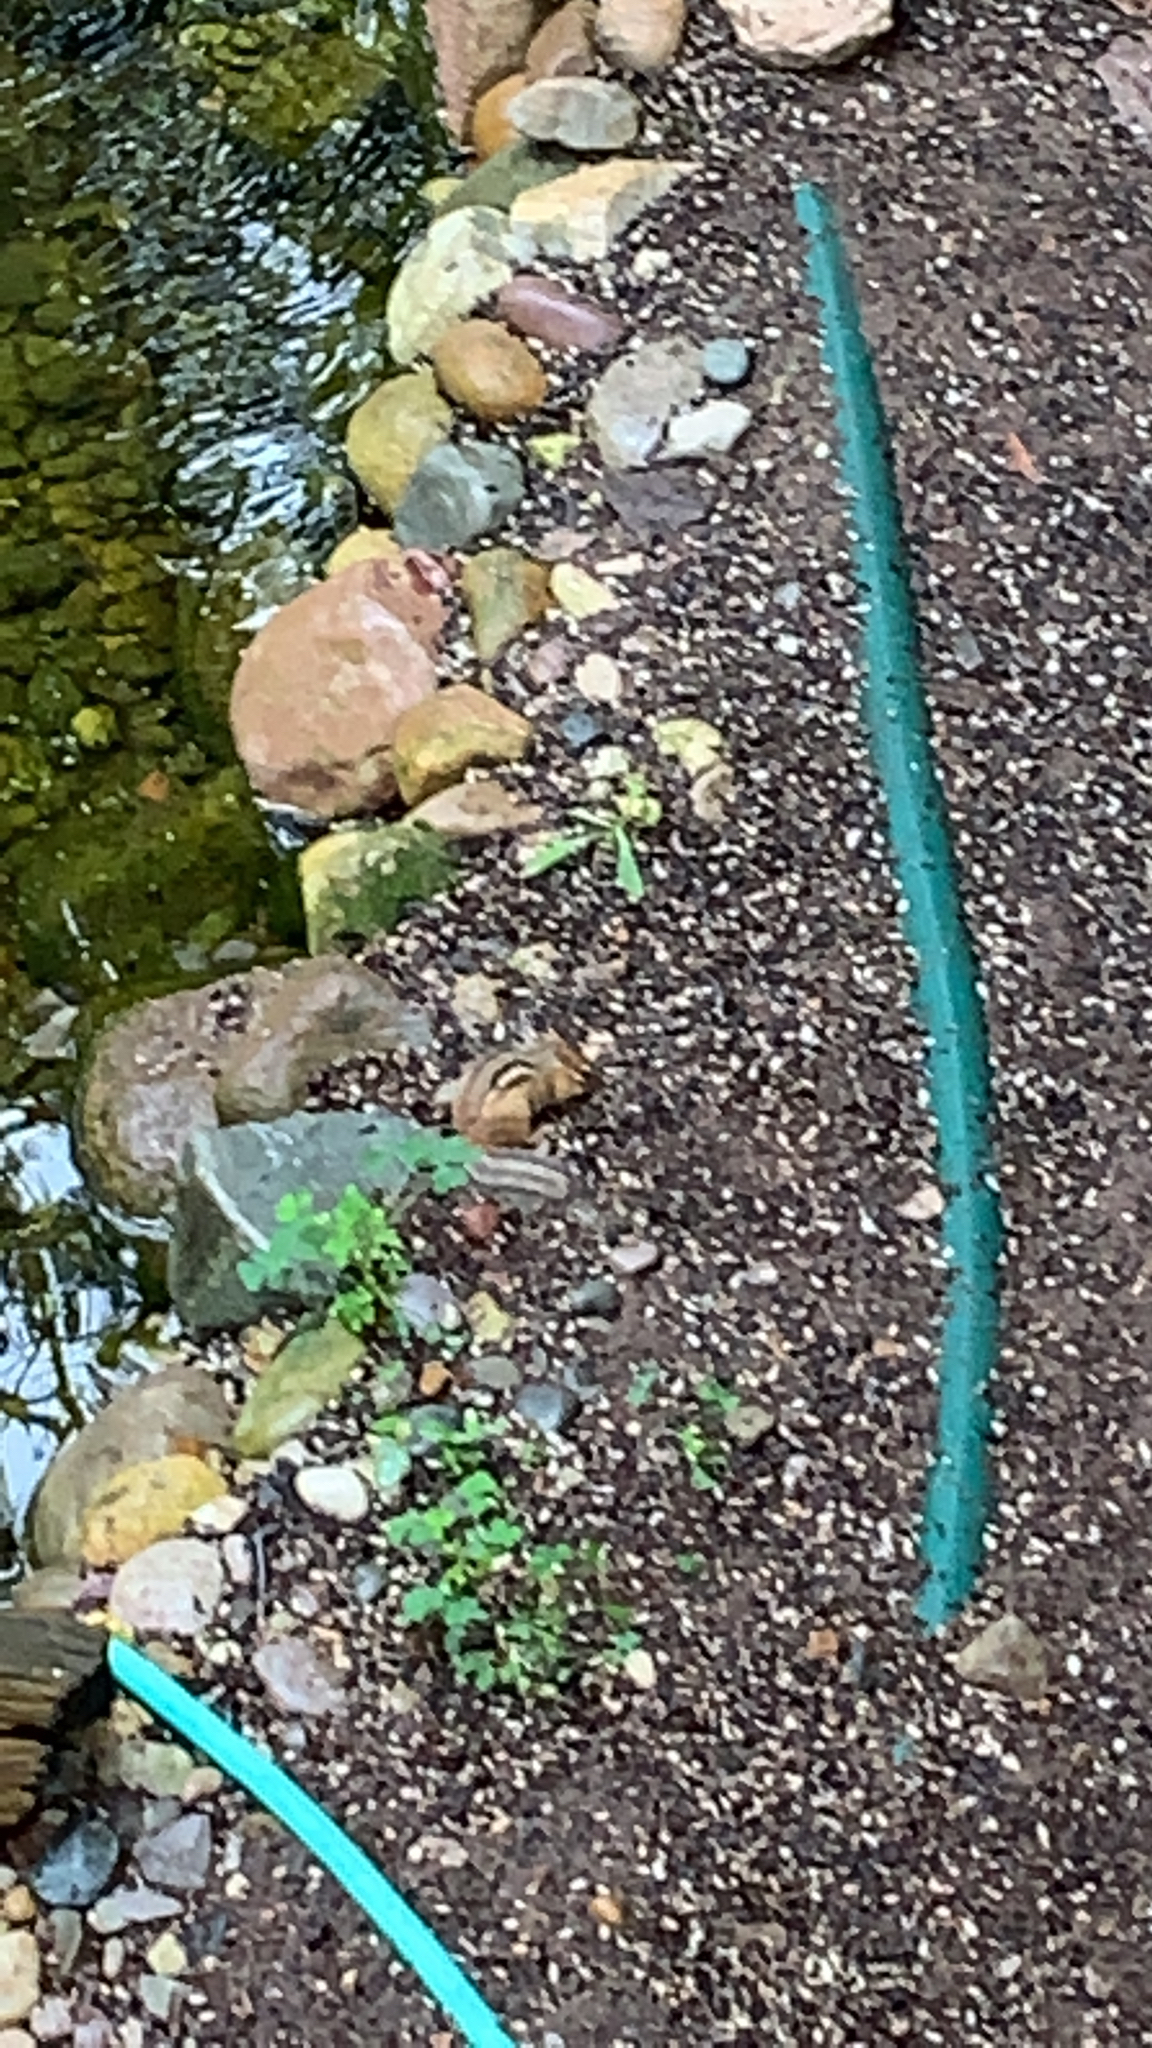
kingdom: Animalia
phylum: Chordata
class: Mammalia
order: Rodentia
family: Sciuridae
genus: Tamias
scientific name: Tamias striatus
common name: Eastern chipmunk
